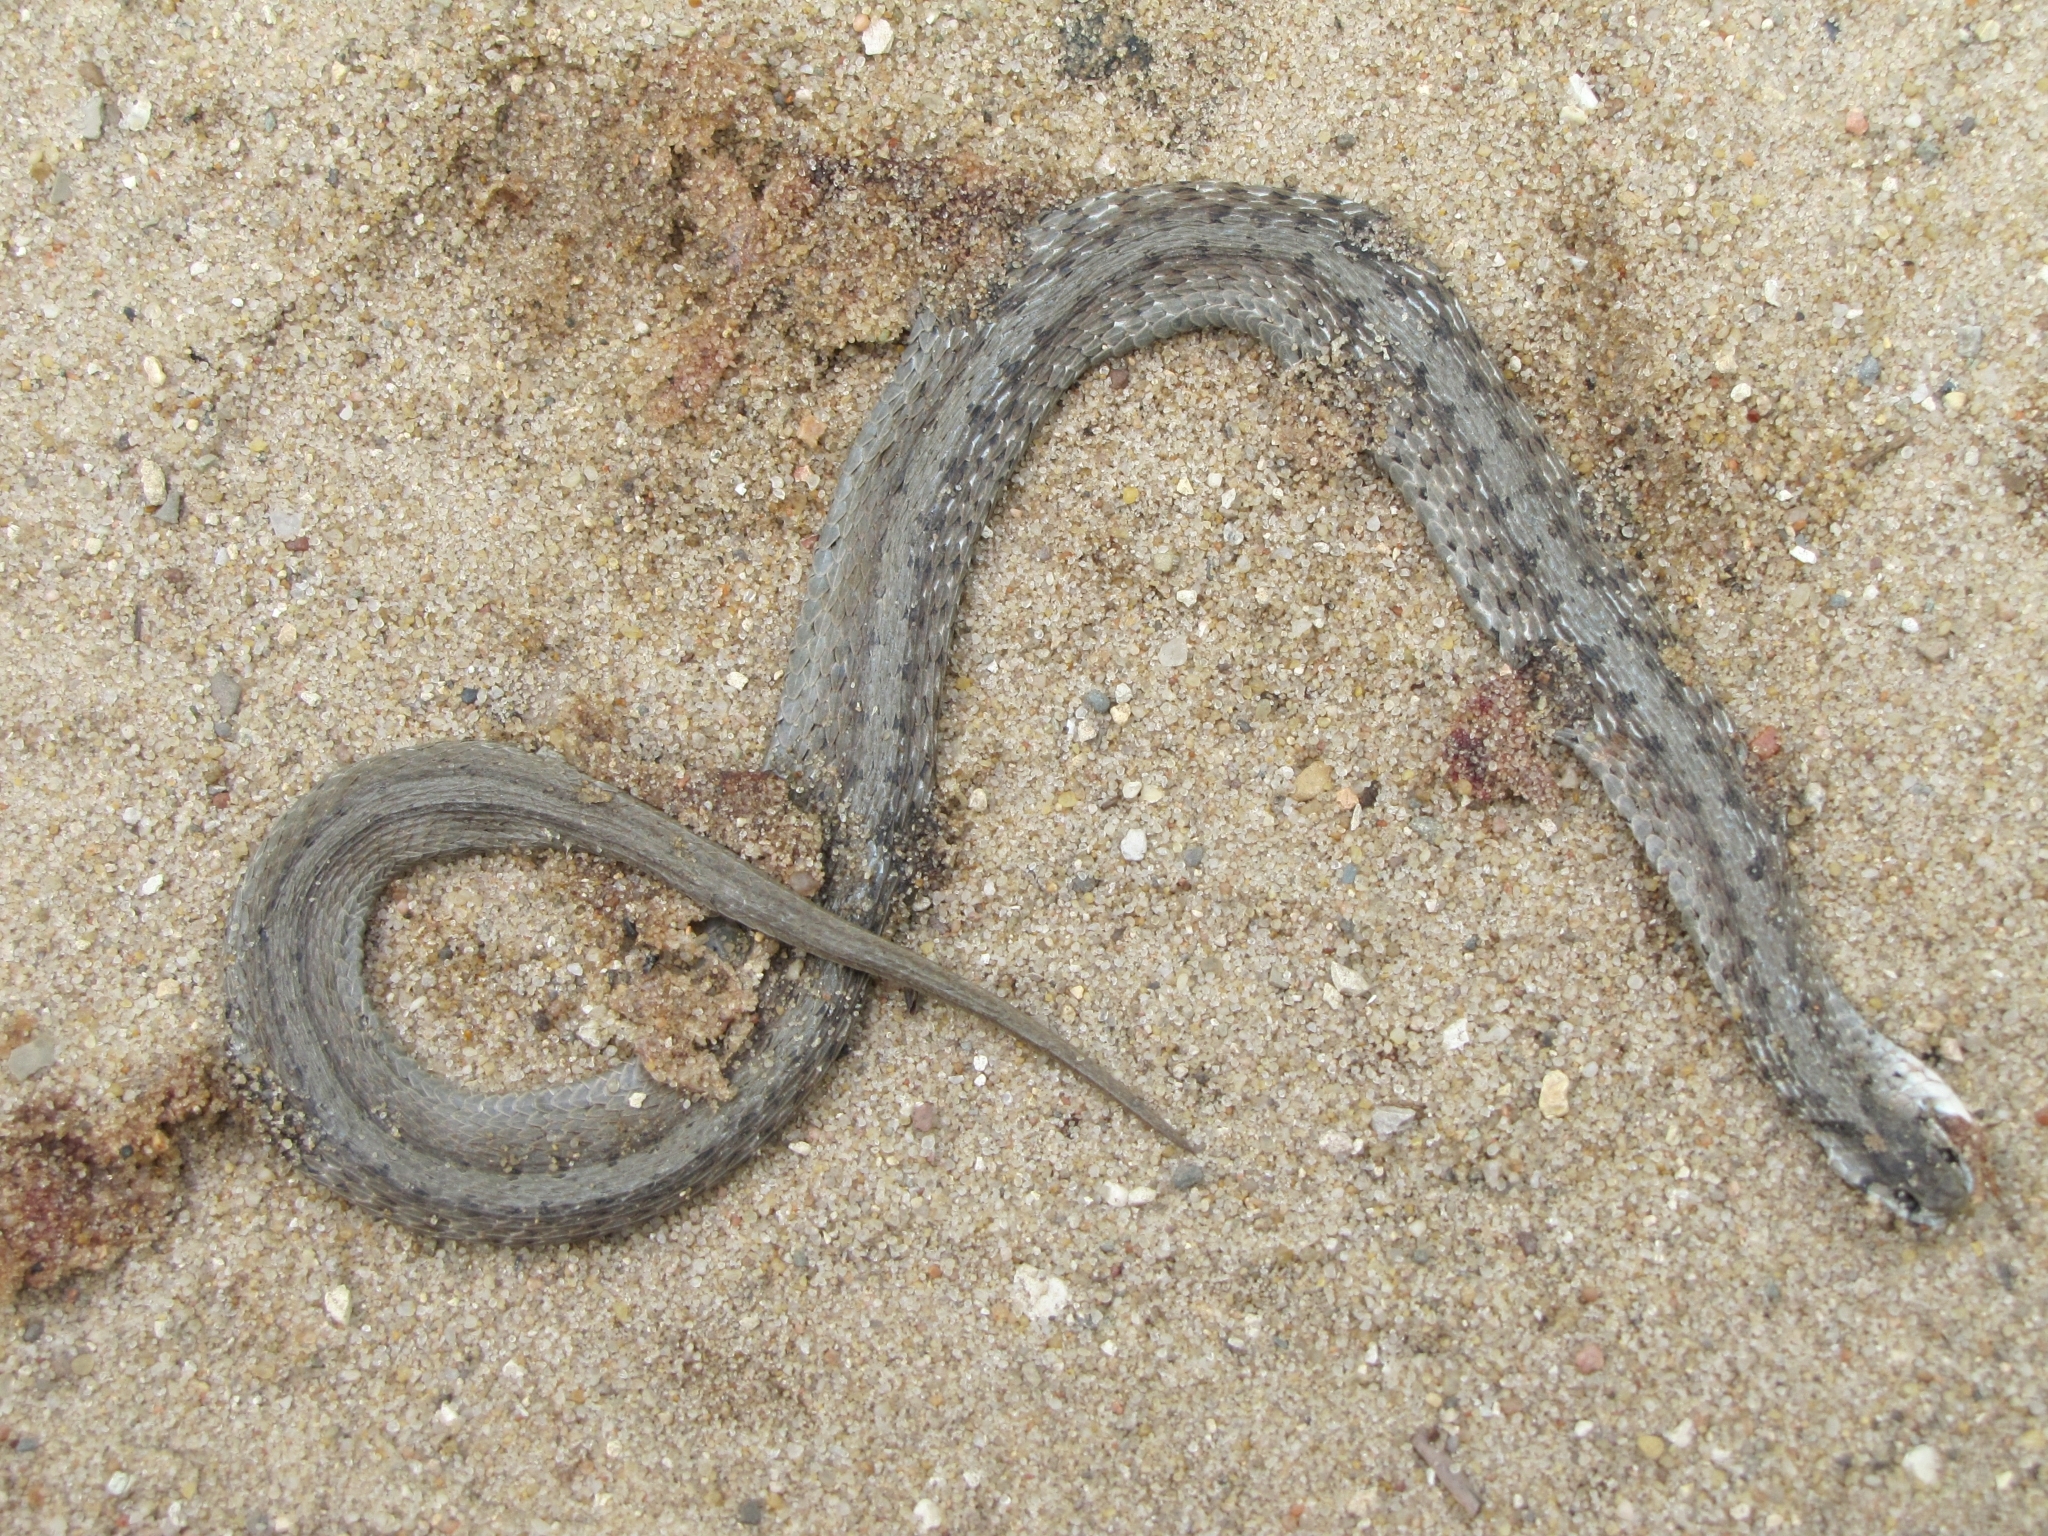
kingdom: Animalia
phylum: Chordata
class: Squamata
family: Colubridae
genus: Storeria
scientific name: Storeria dekayi
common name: (dekay’s) brown snake
